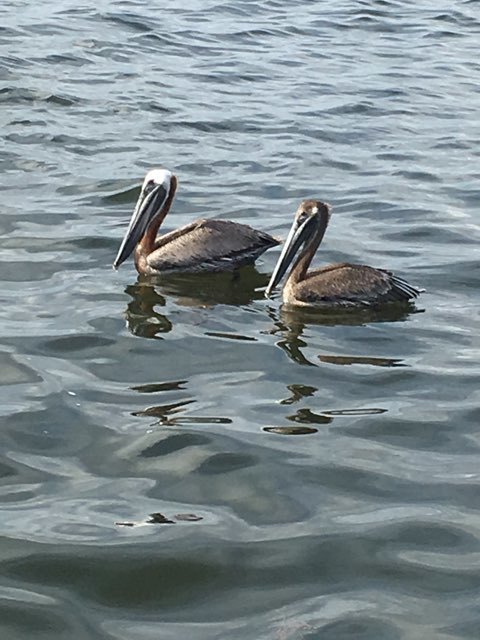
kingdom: Animalia
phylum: Chordata
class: Aves
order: Pelecaniformes
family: Pelecanidae
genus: Pelecanus
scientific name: Pelecanus occidentalis
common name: Brown pelican
